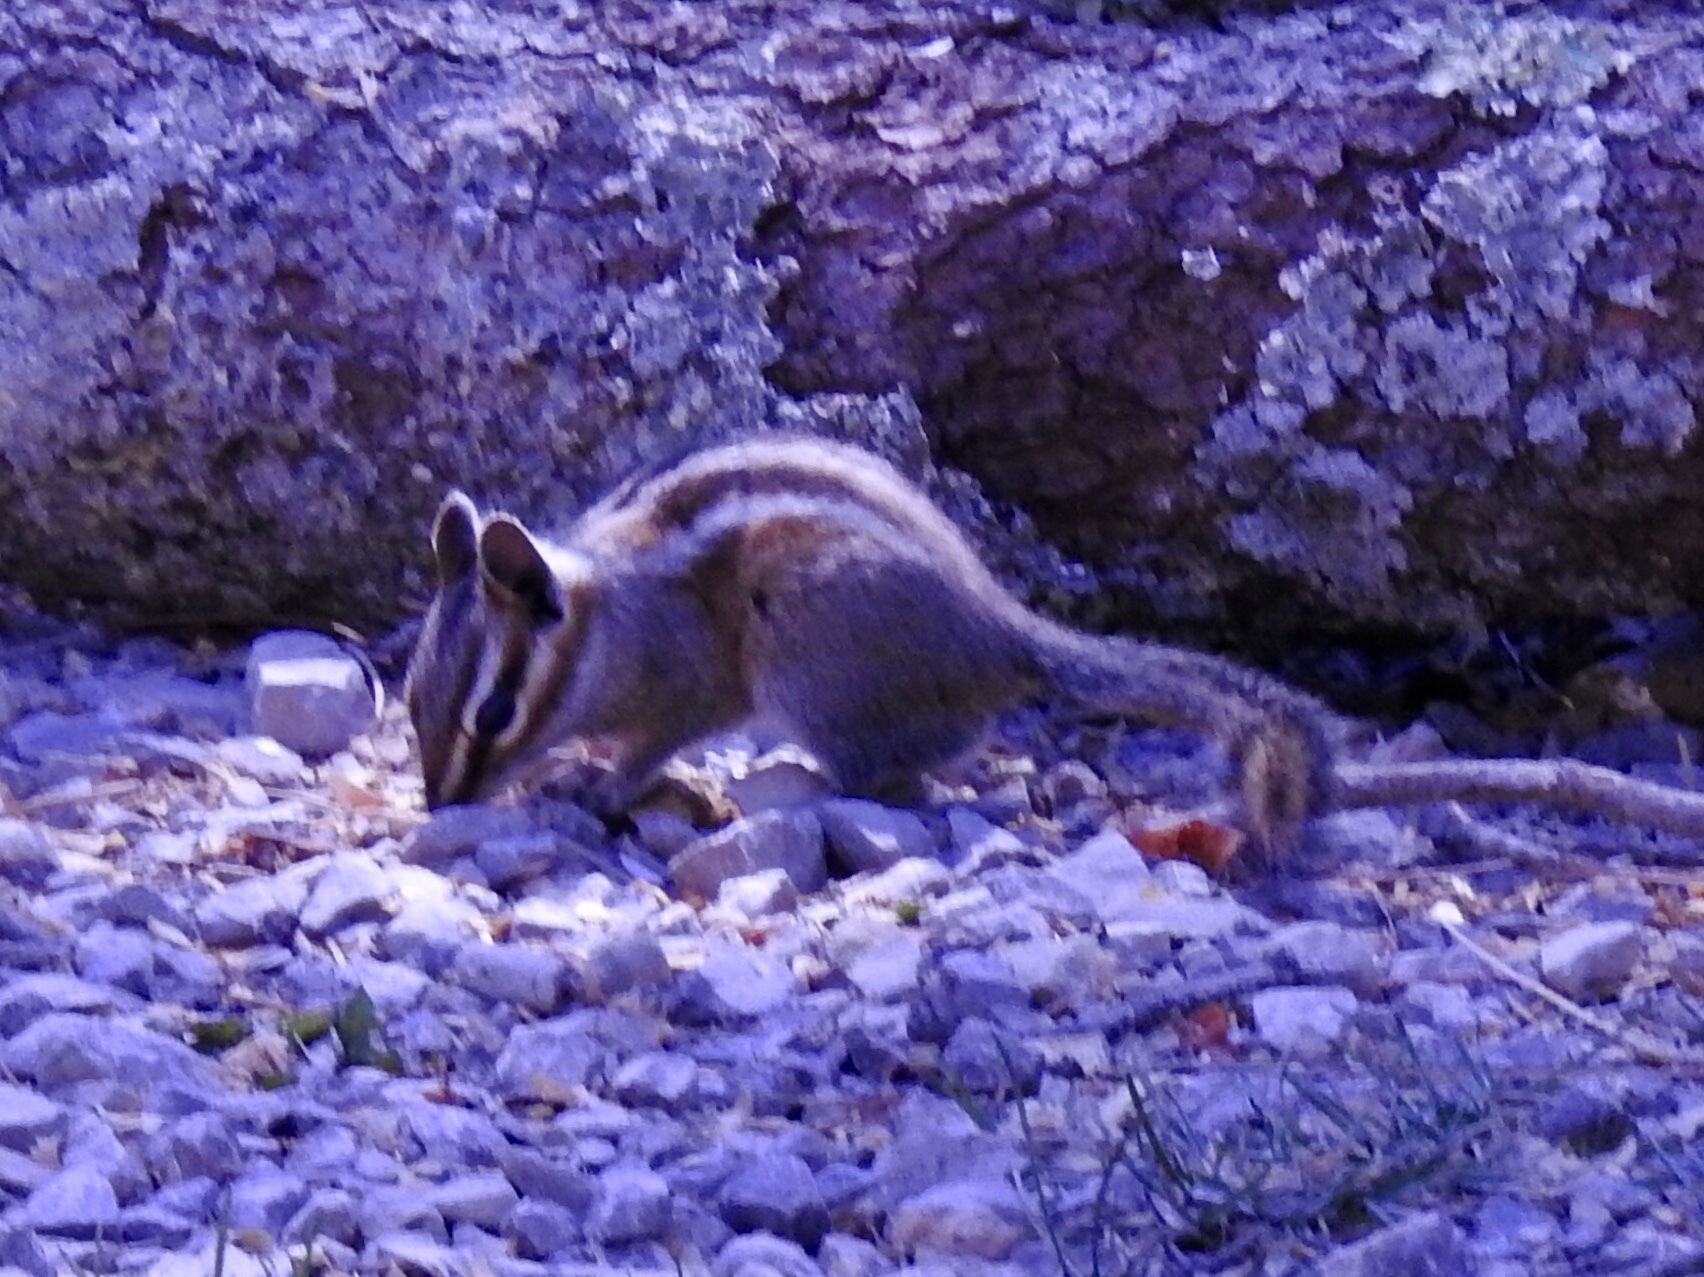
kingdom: Animalia
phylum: Chordata
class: Mammalia
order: Rodentia
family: Sciuridae
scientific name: Sciuridae
